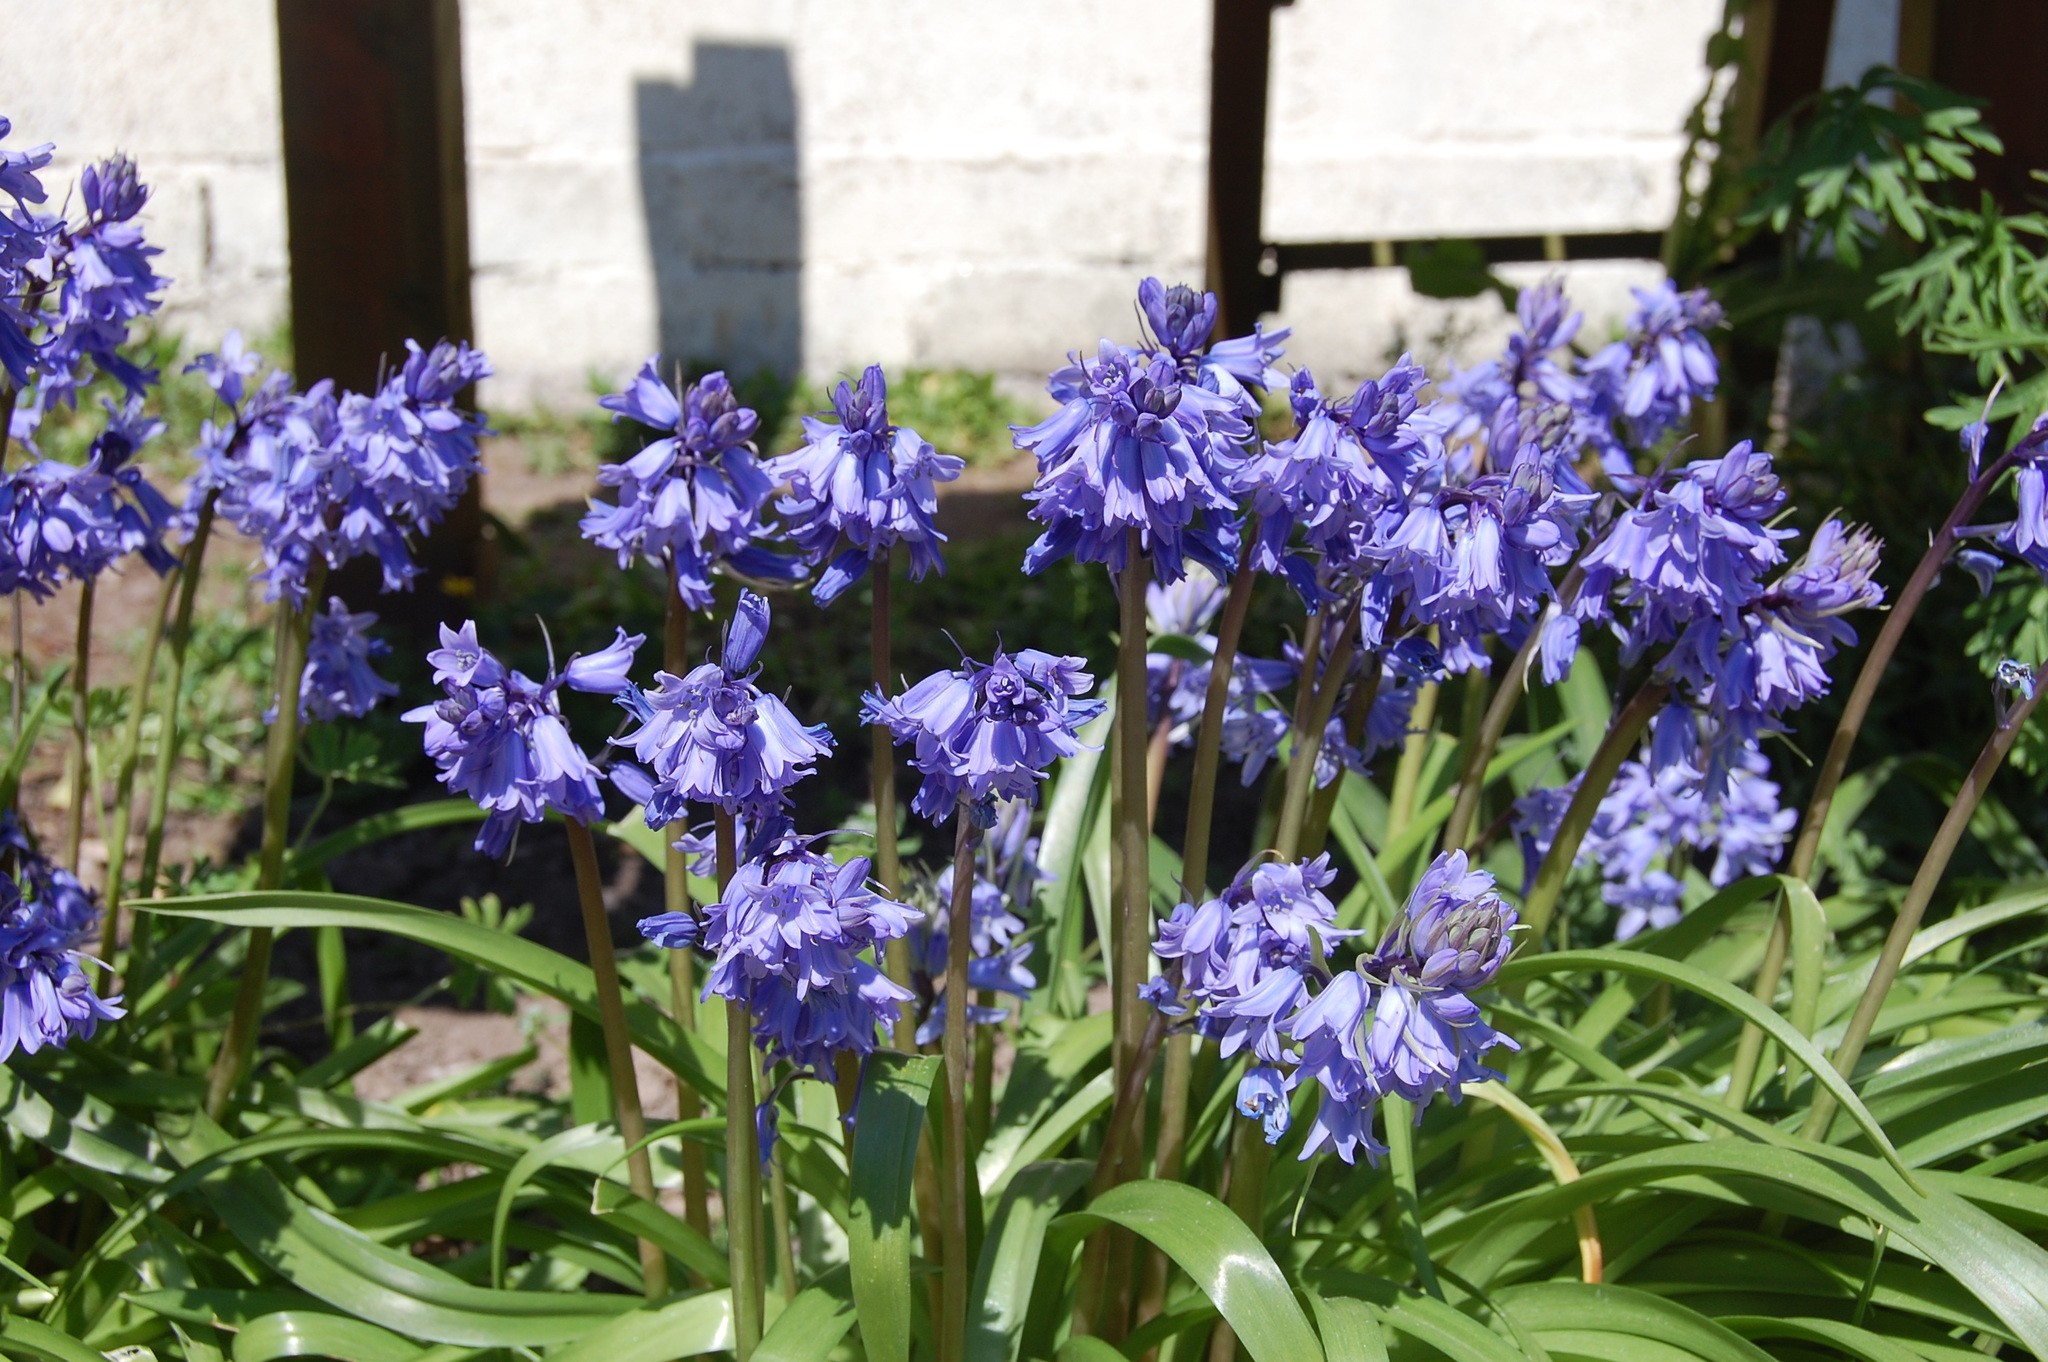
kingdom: Plantae
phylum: Tracheophyta
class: Liliopsida
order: Asparagales
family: Asparagaceae
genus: Hyacinthoides
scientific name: Hyacinthoides hispanica
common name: Spanish bluebell
